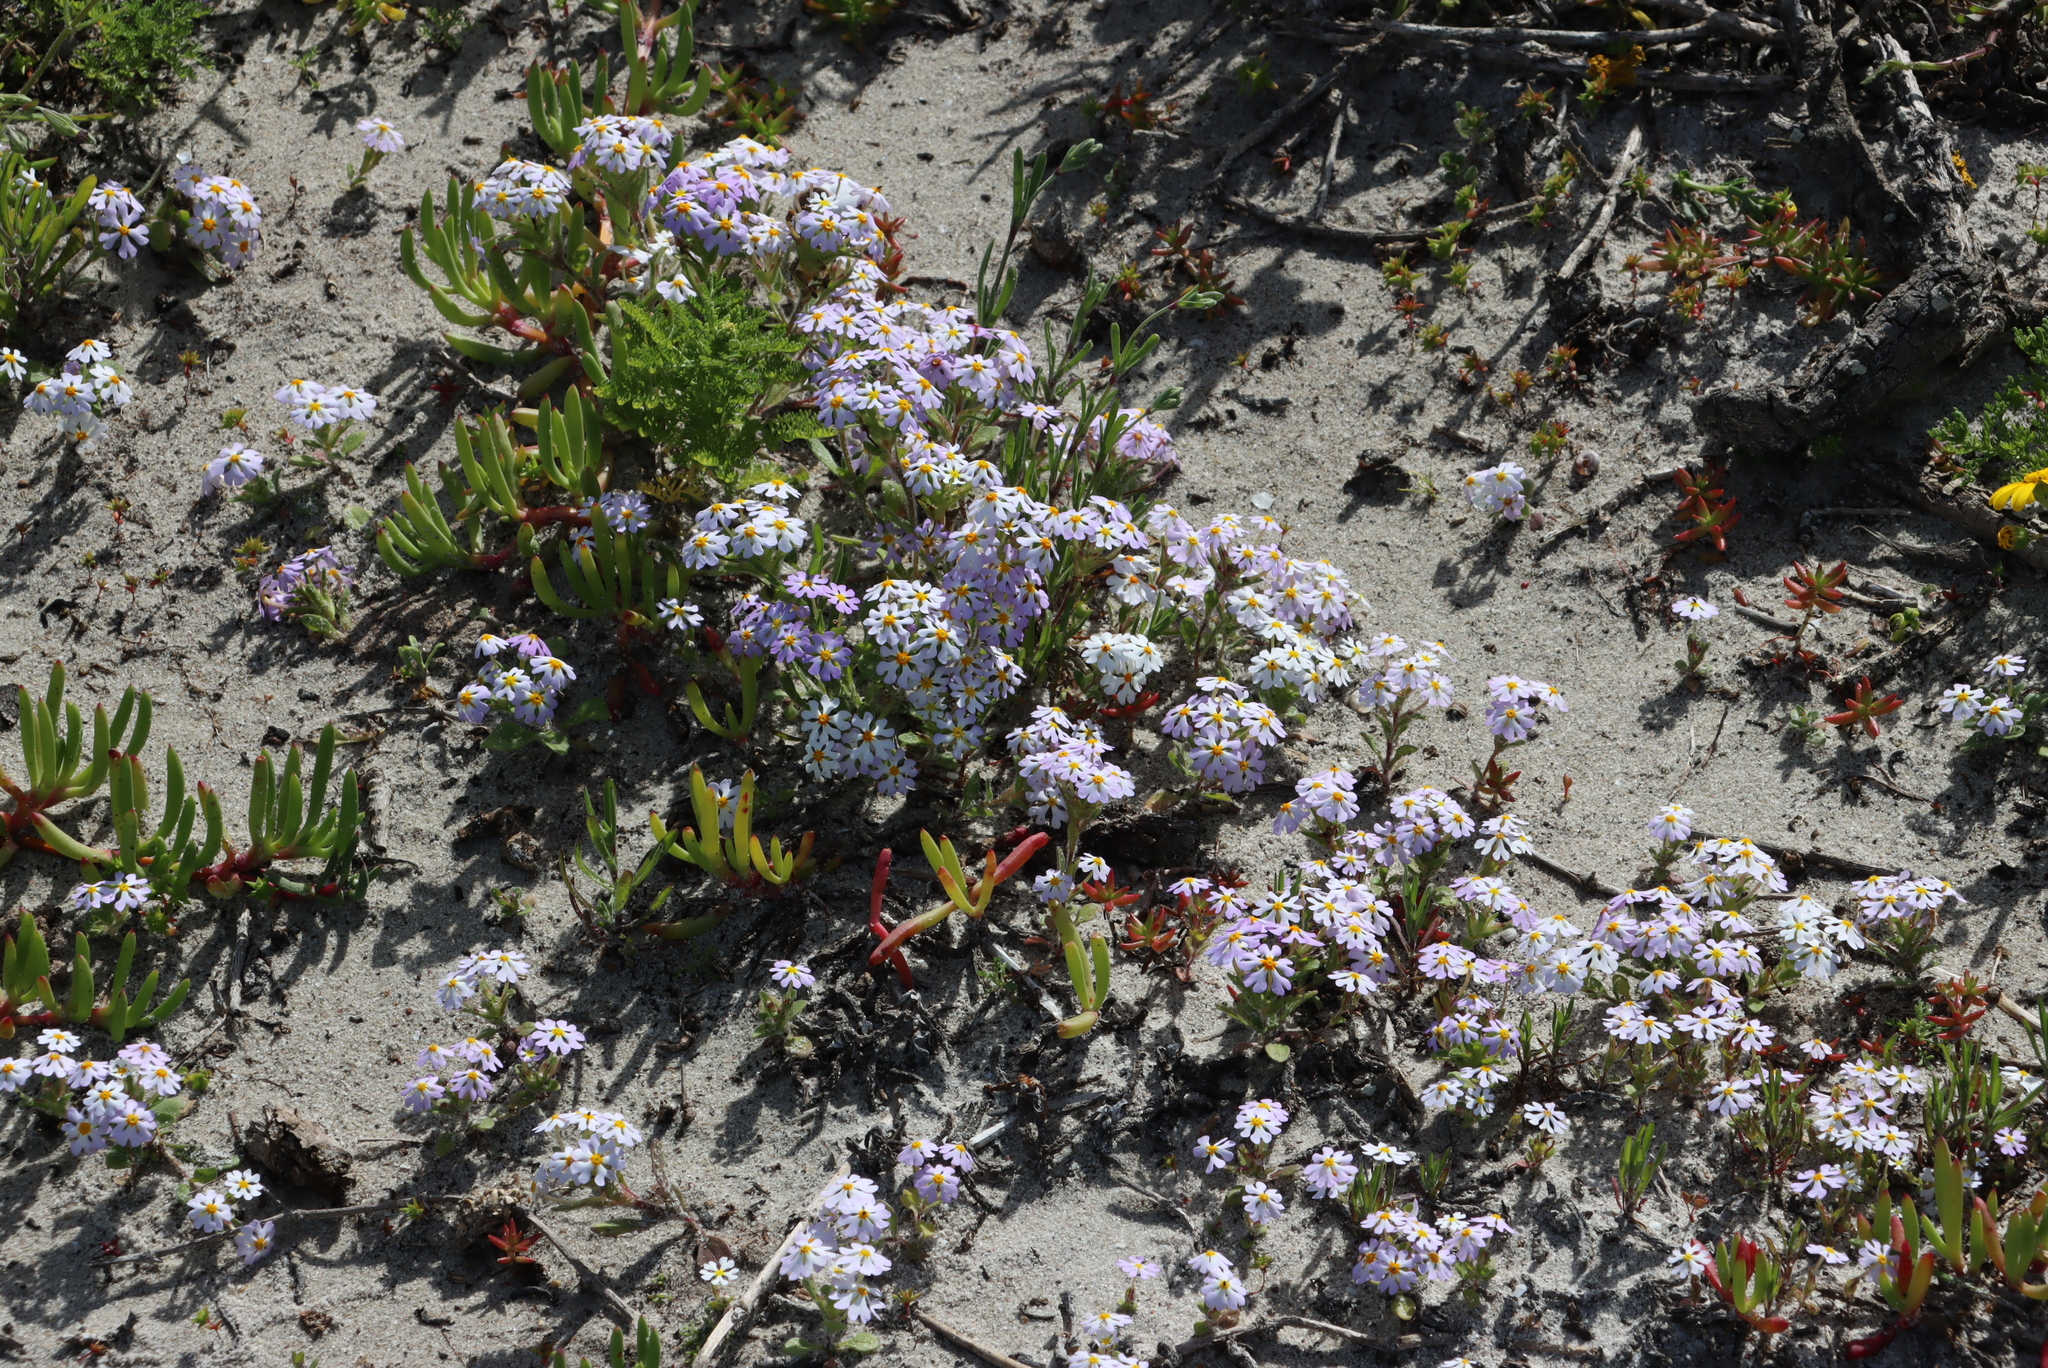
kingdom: Plantae
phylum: Tracheophyta
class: Magnoliopsida
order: Lamiales
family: Scrophulariaceae
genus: Zaluzianskya
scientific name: Zaluzianskya villosa
